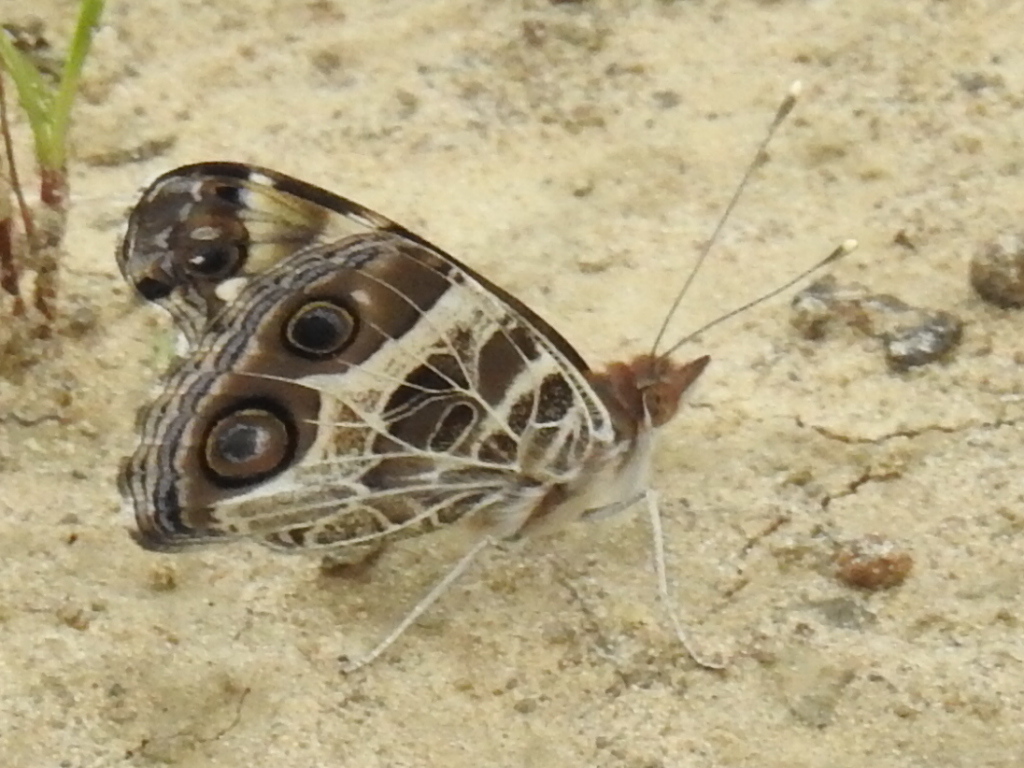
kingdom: Animalia
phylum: Arthropoda
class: Insecta
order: Lepidoptera
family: Nymphalidae
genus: Vanessa
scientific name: Vanessa virginiensis
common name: American lady
